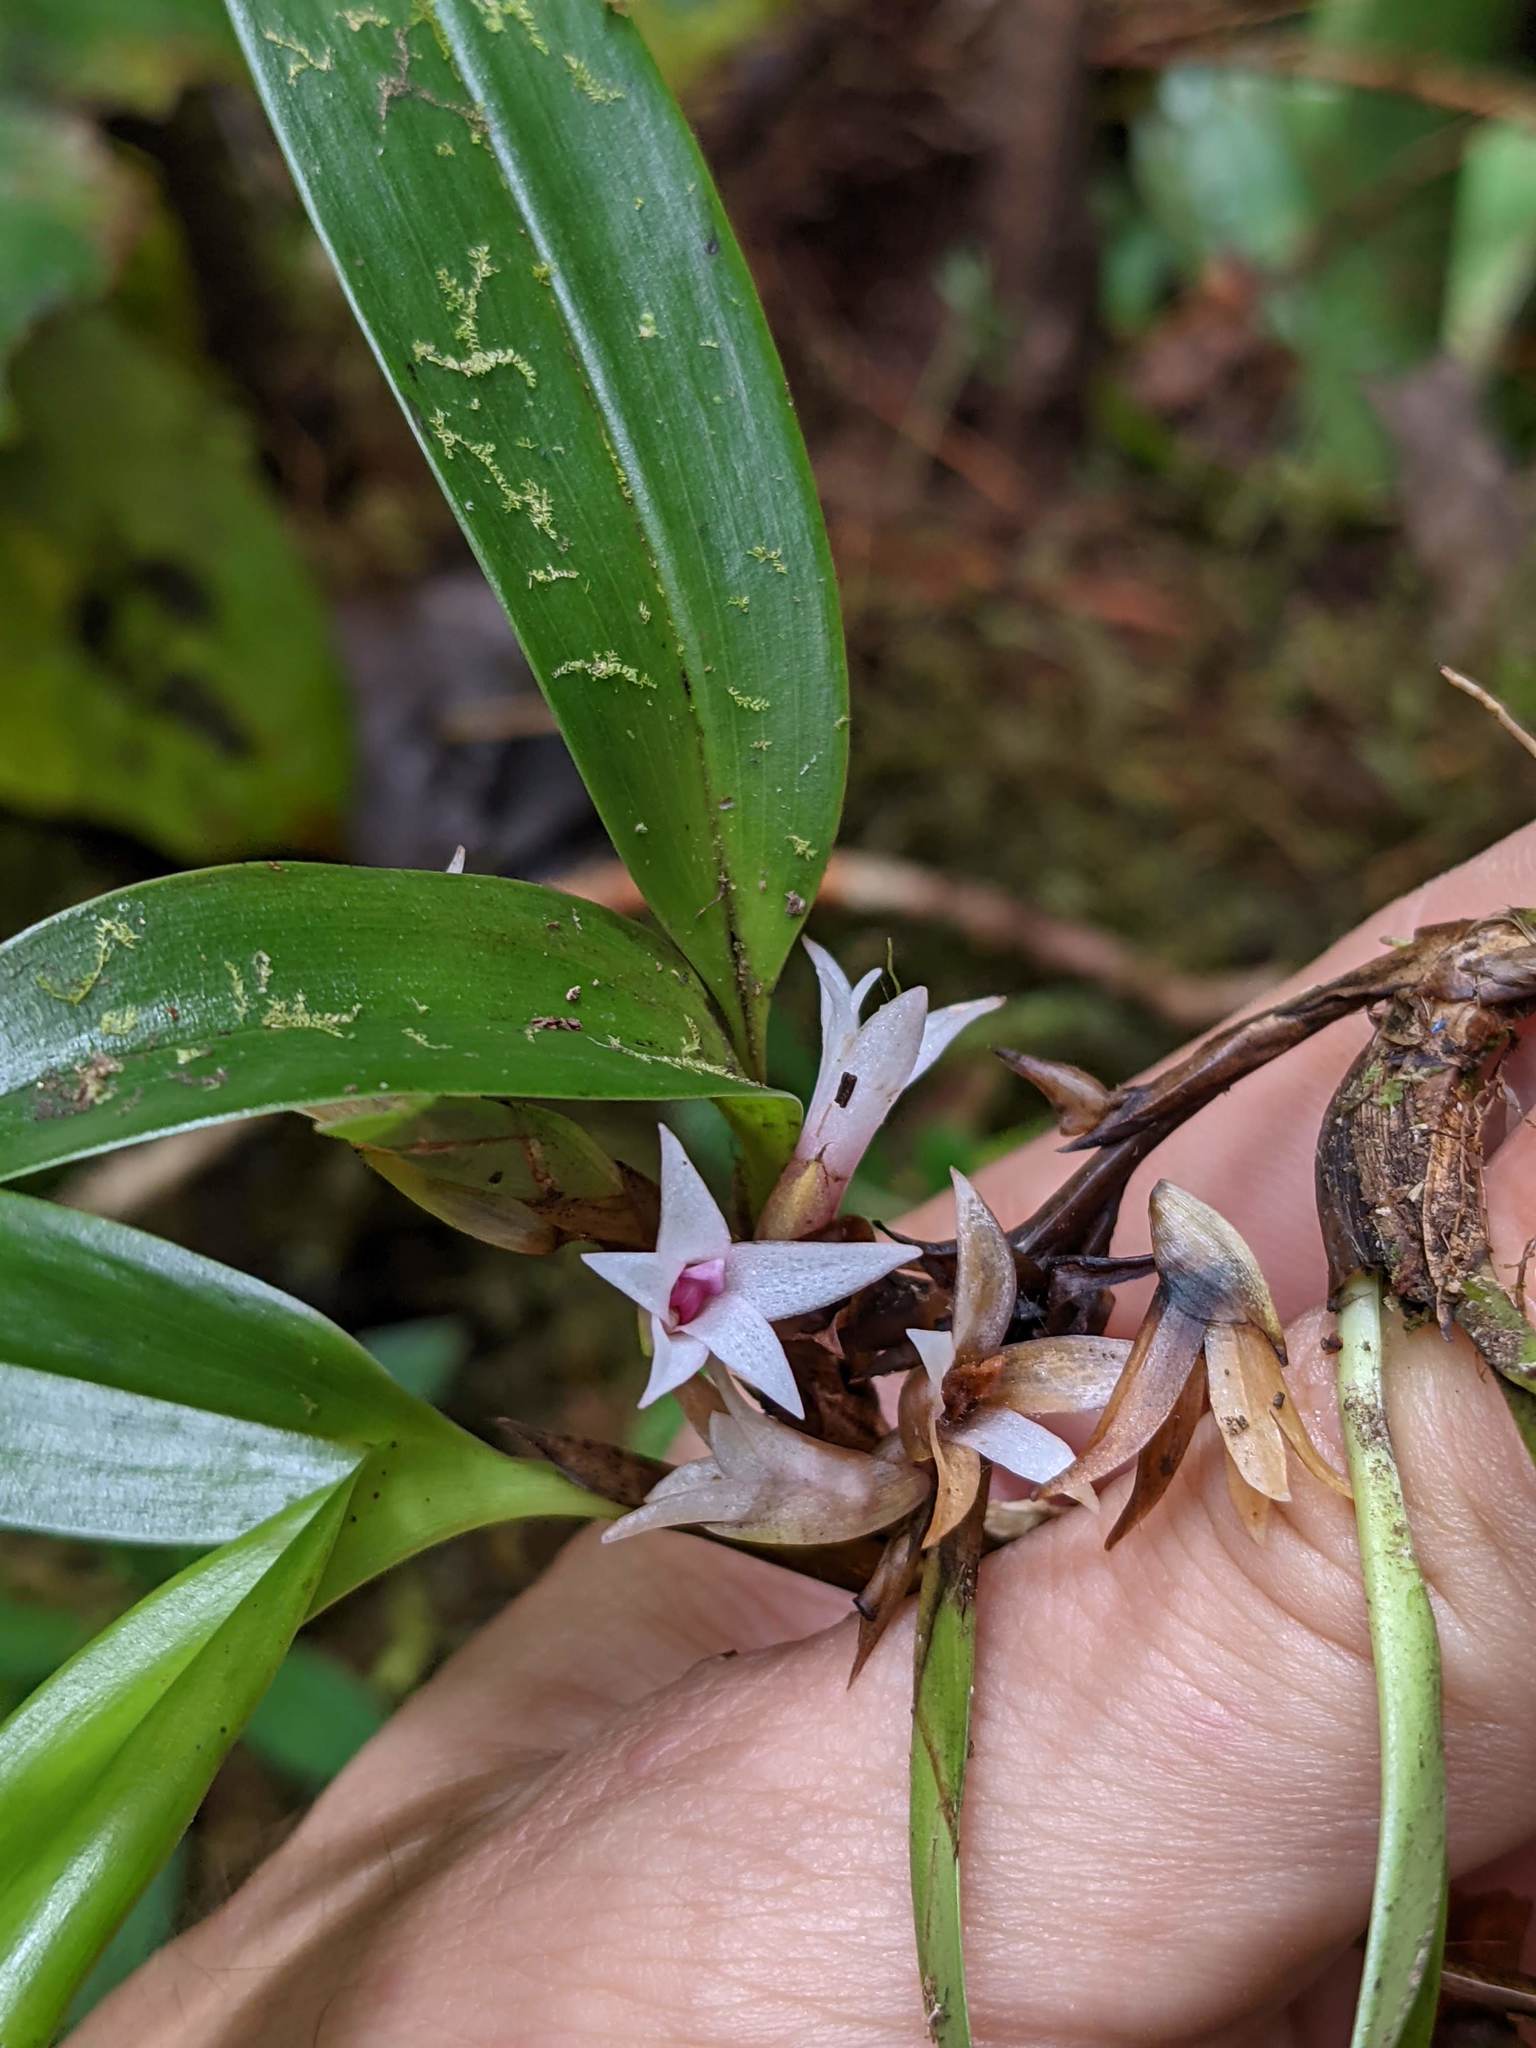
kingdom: Plantae
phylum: Tracheophyta
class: Liliopsida
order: Asparagales
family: Orchidaceae
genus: Maxillaria
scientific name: Maxillaria schlechteriana
